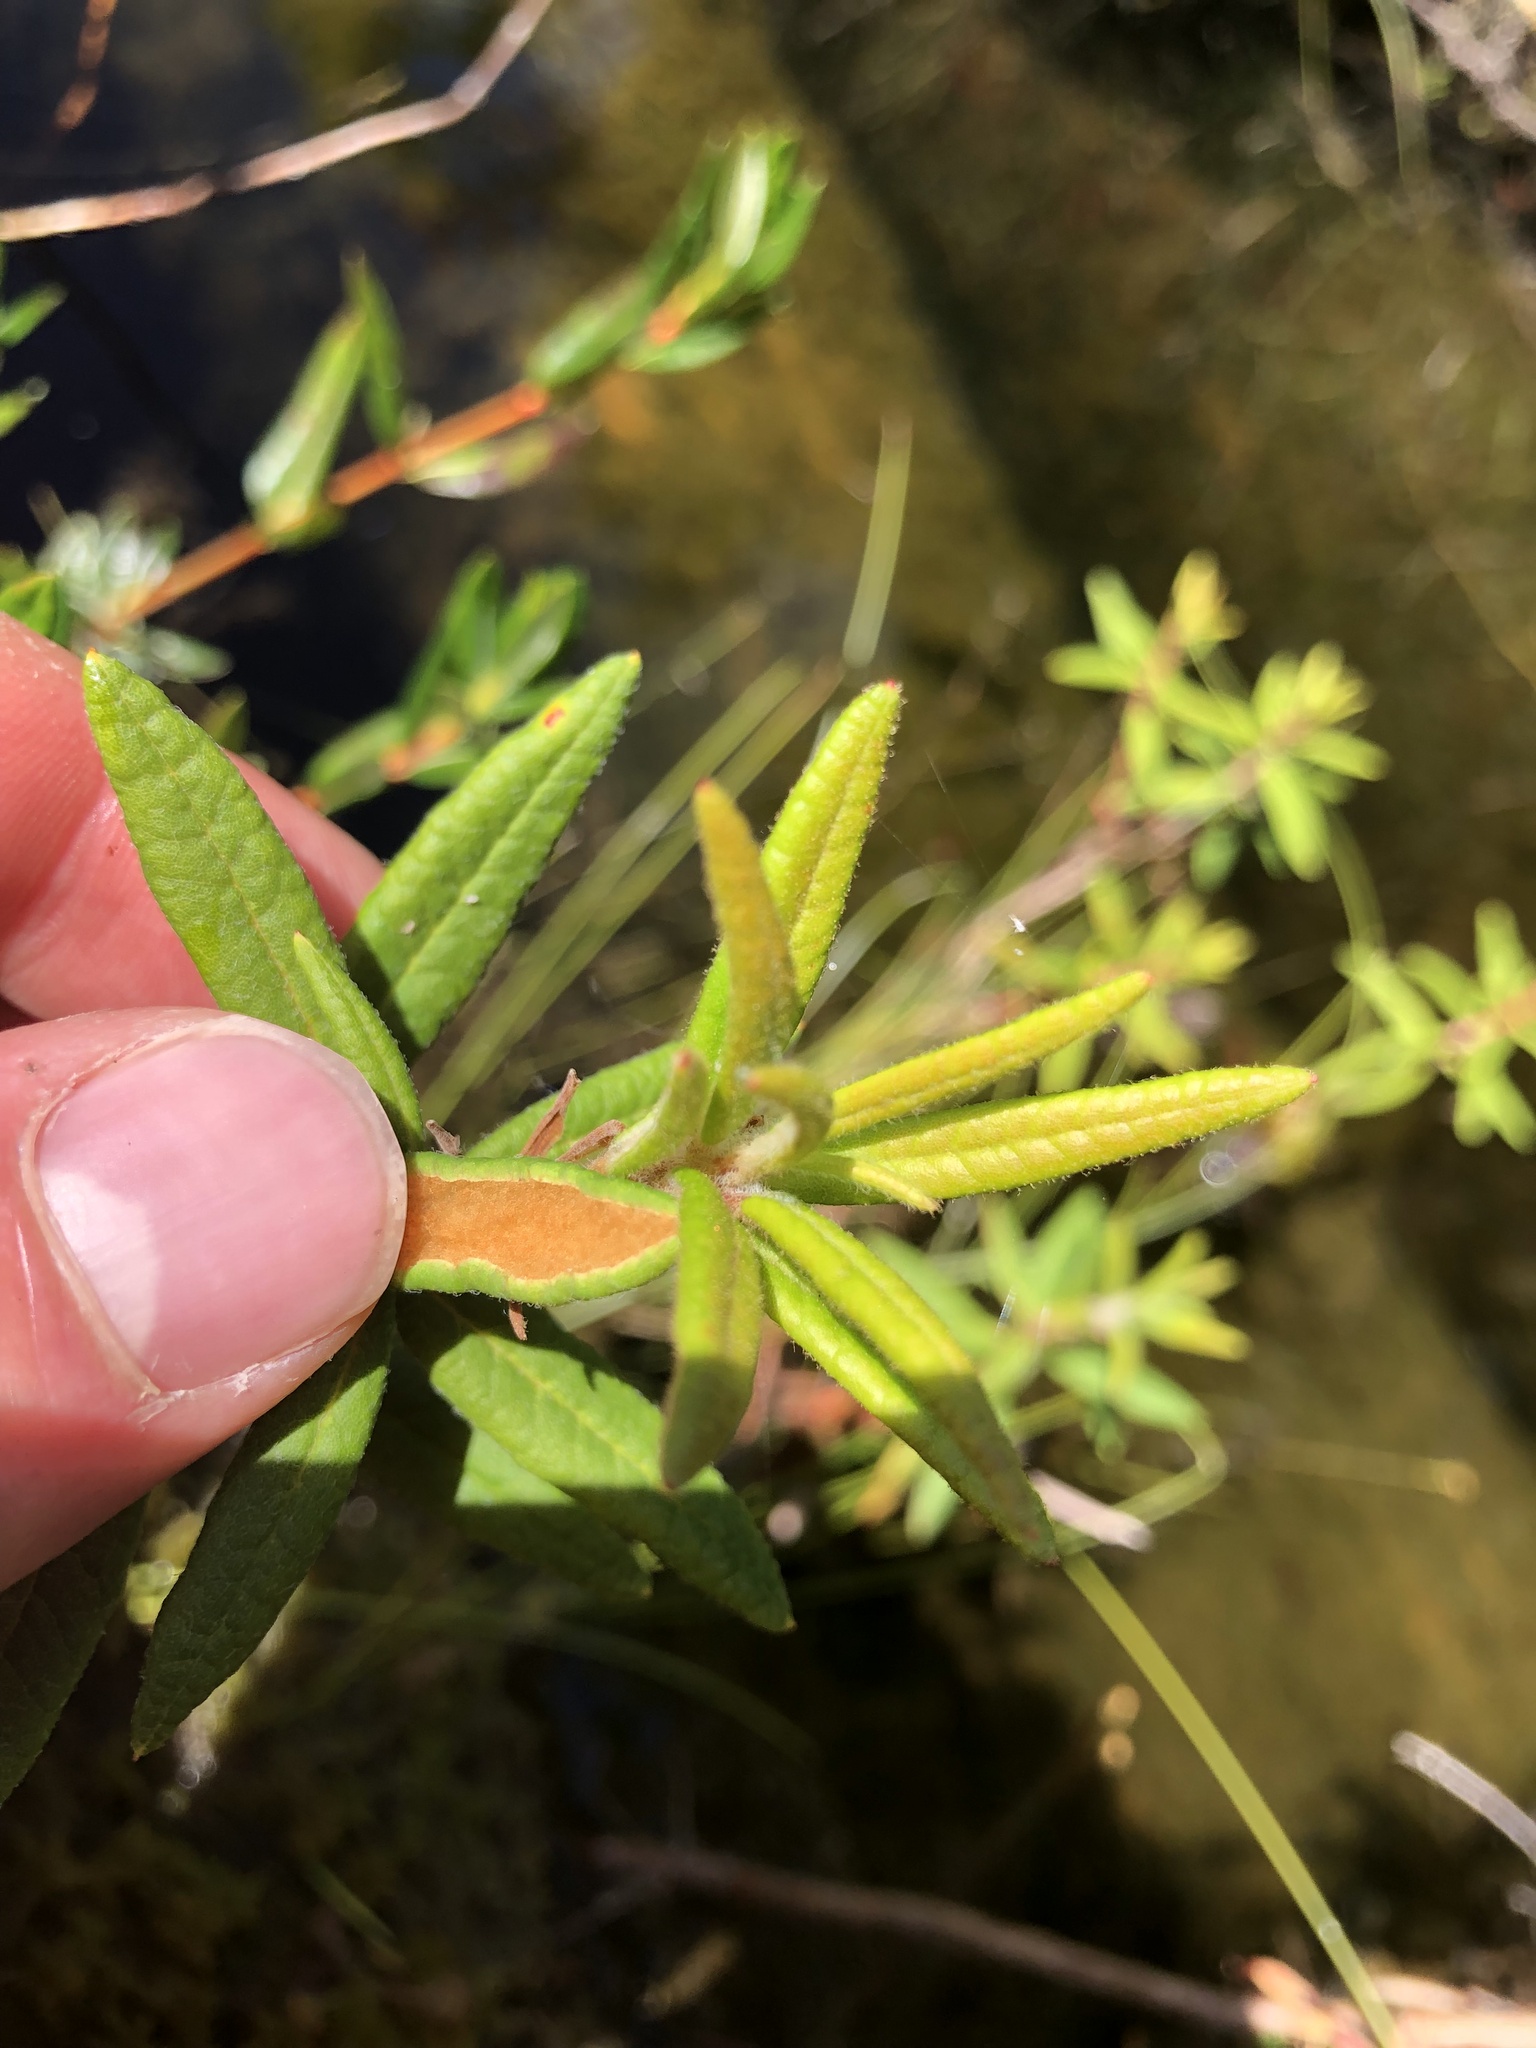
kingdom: Plantae
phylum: Tracheophyta
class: Magnoliopsida
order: Ericales
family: Ericaceae
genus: Rhododendron
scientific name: Rhododendron groenlandicum
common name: Bog labrador tea
